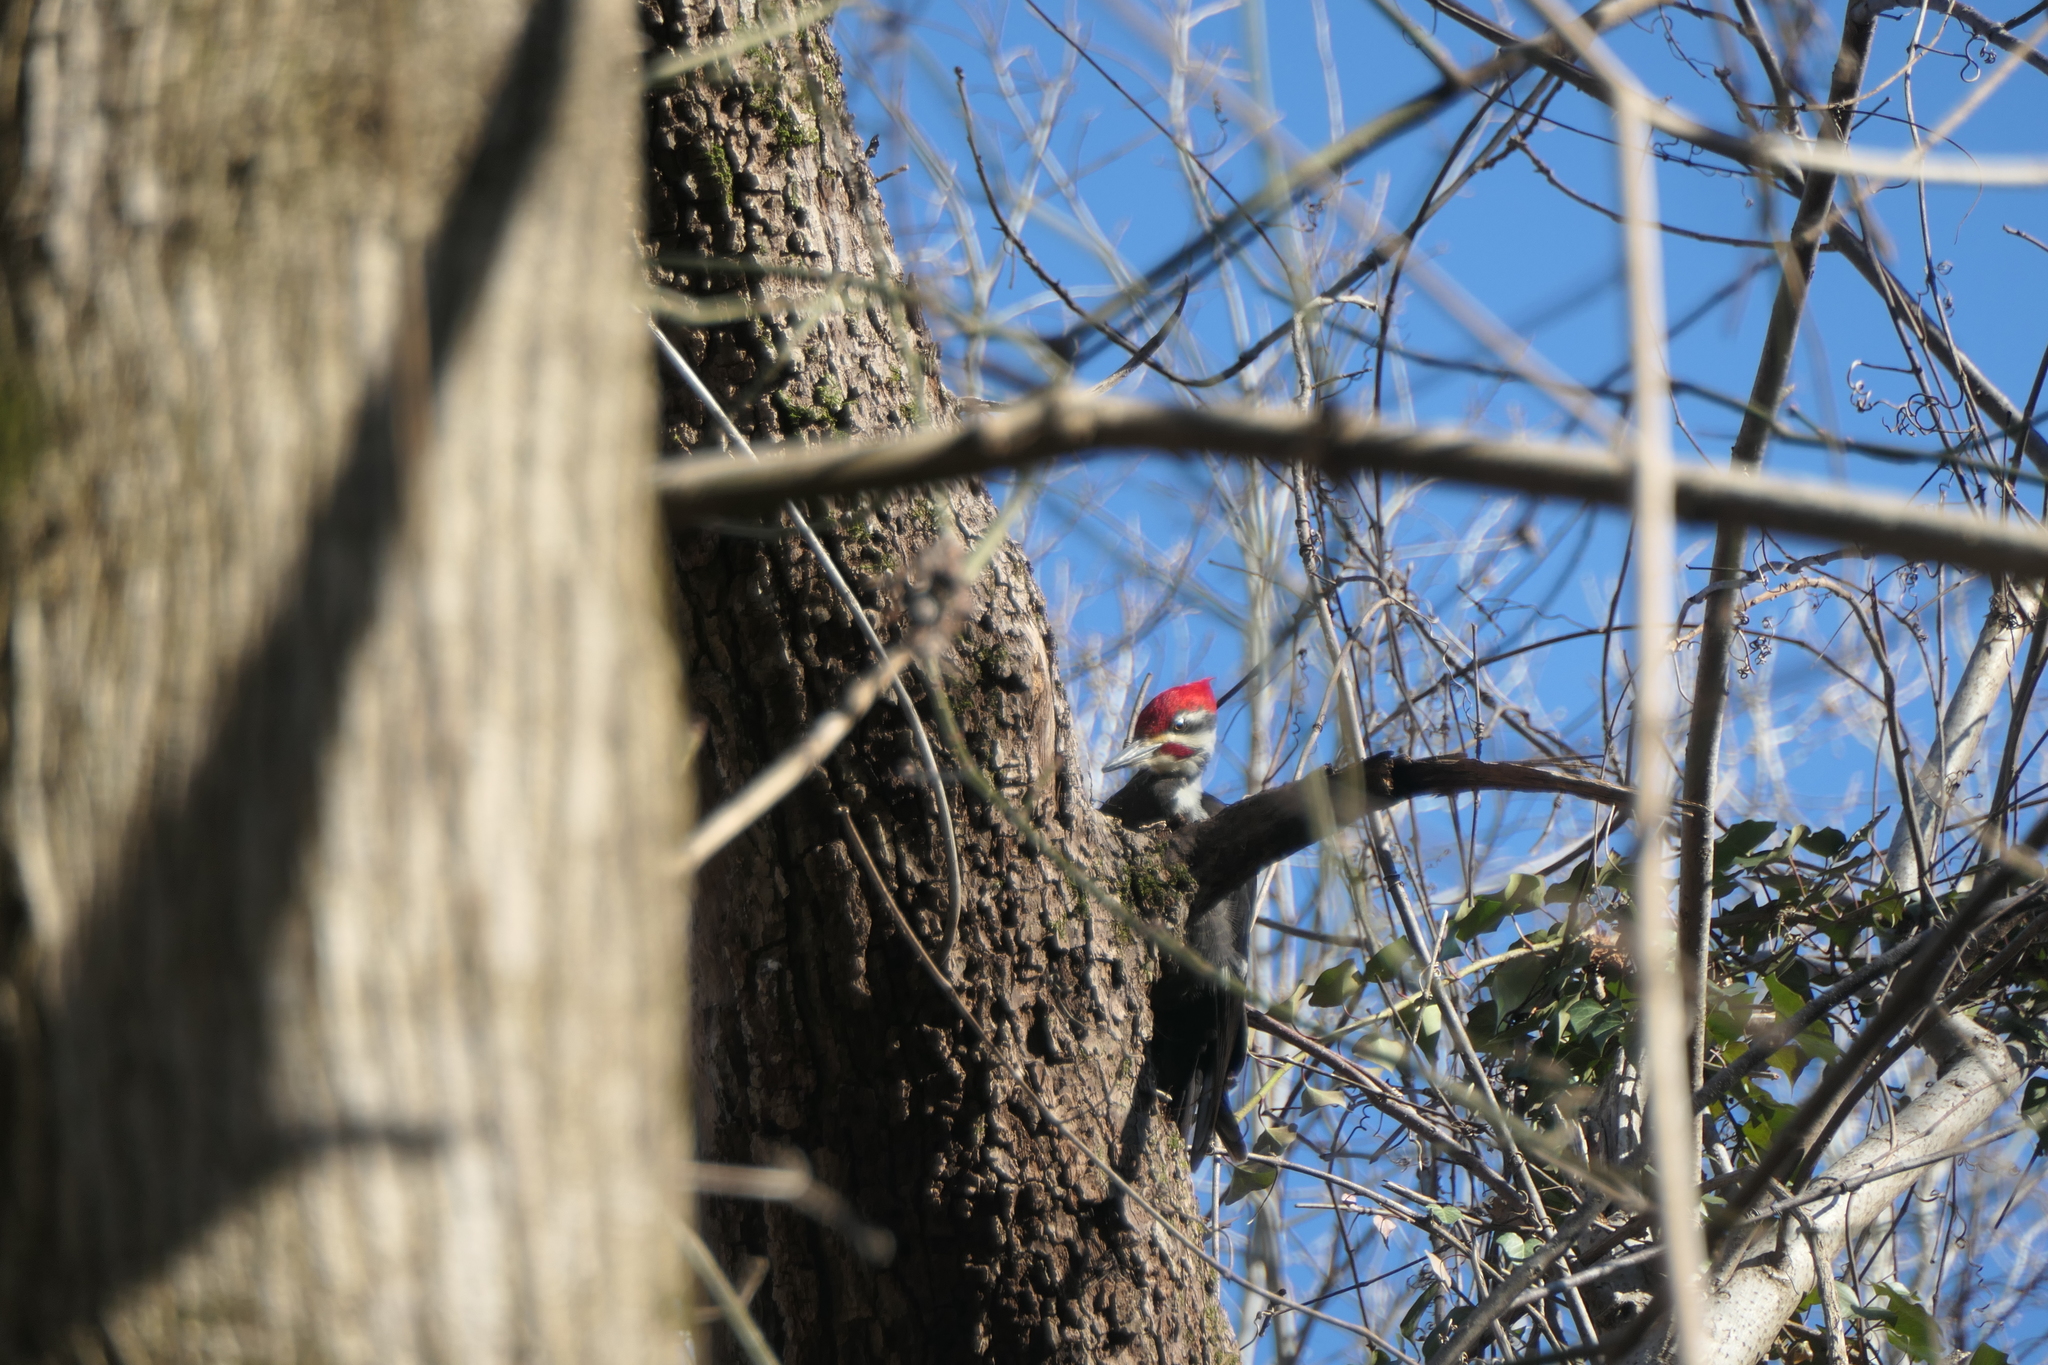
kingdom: Animalia
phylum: Chordata
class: Aves
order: Piciformes
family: Picidae
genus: Dryocopus
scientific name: Dryocopus pileatus
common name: Pileated woodpecker
